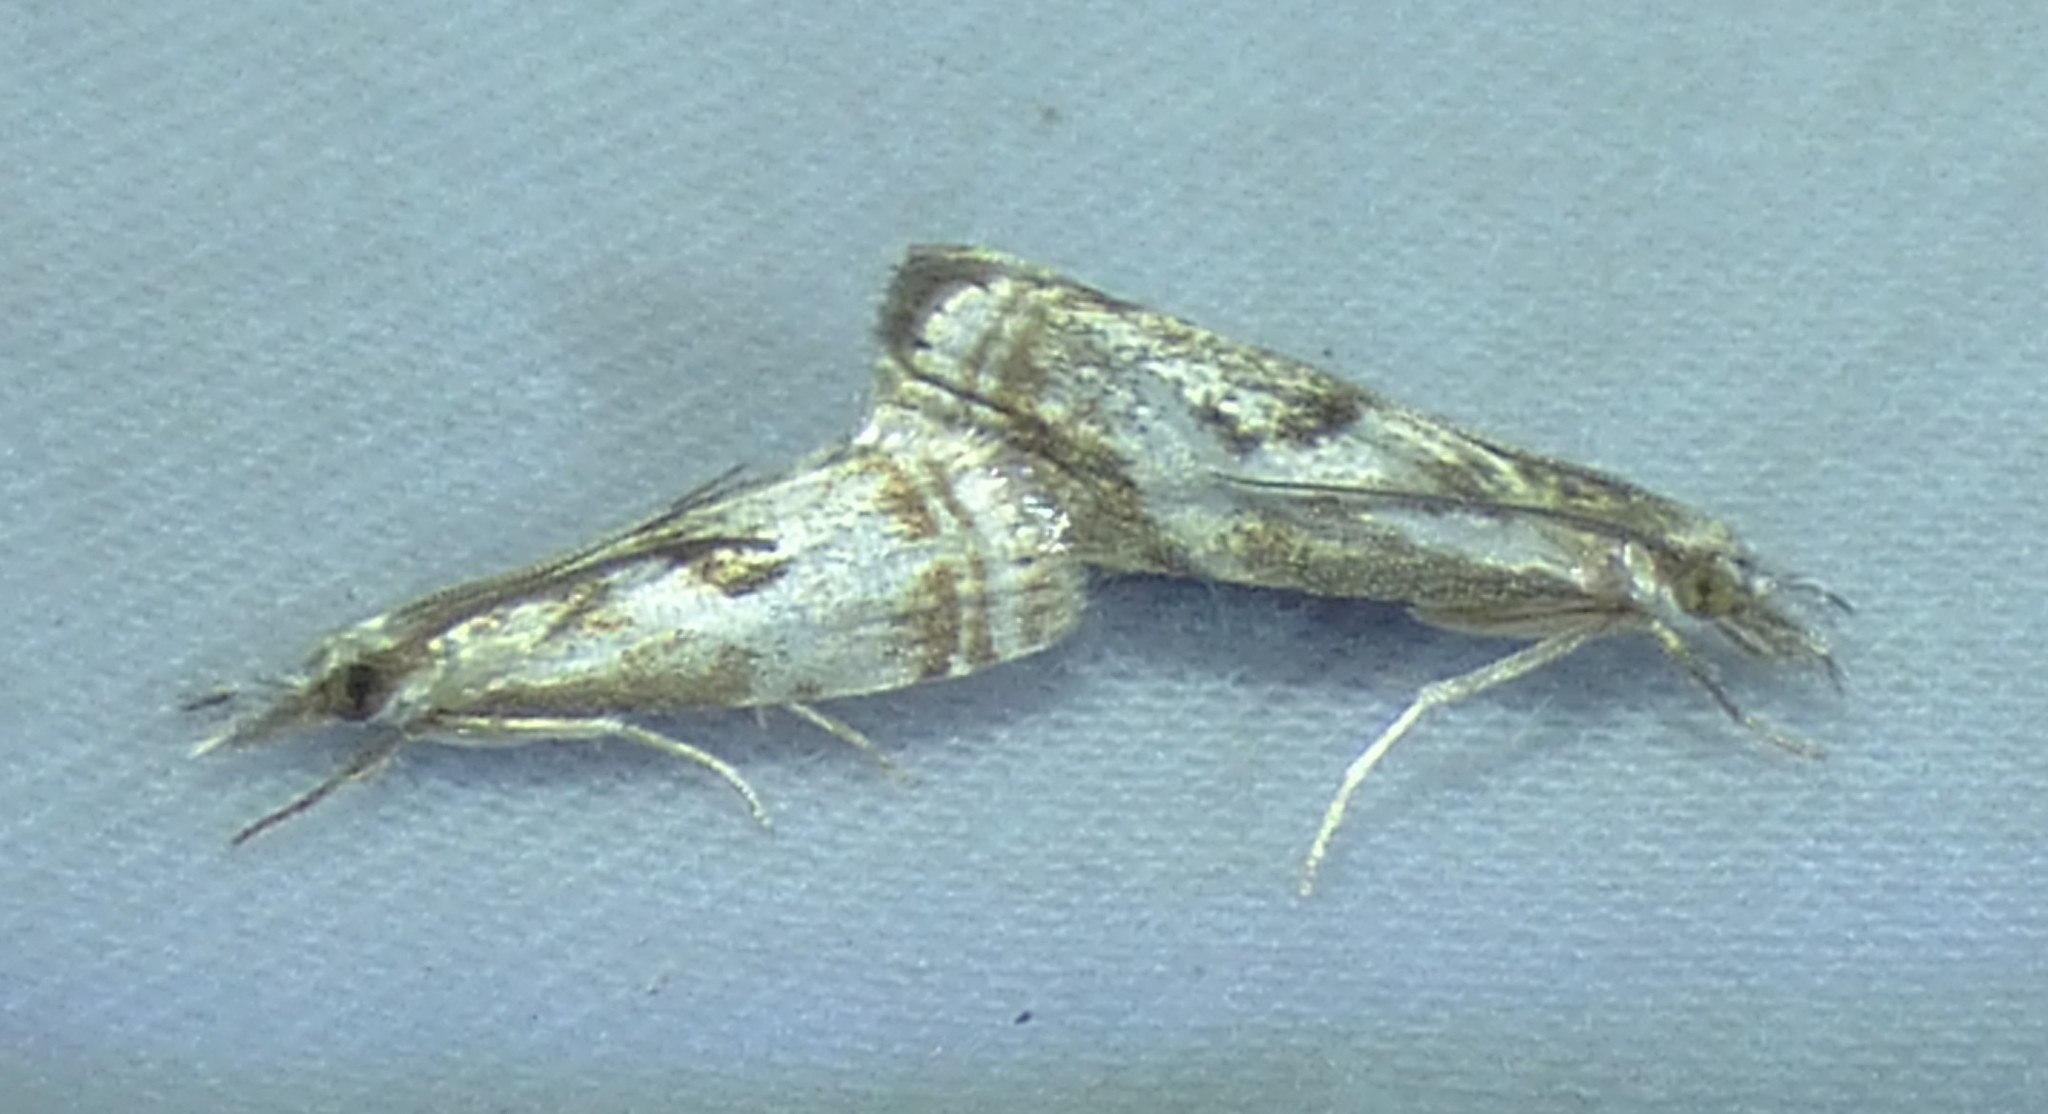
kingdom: Animalia
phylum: Arthropoda
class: Insecta
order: Lepidoptera
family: Crambidae
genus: Microcrambus
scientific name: Microcrambus elegans
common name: Elegant grass-veneer
